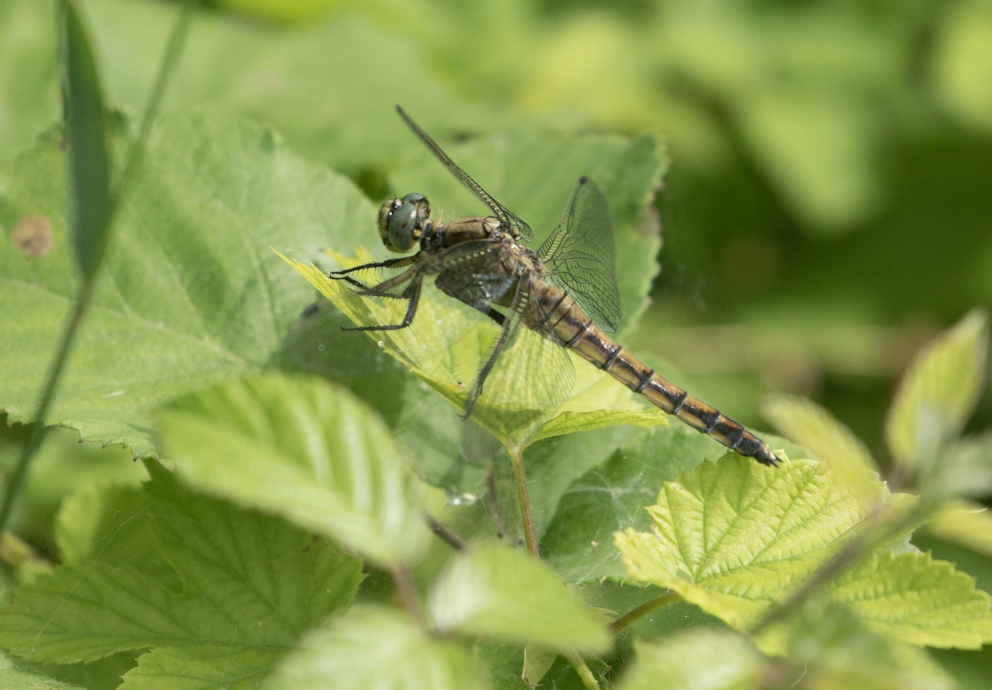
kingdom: Animalia
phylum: Arthropoda
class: Insecta
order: Odonata
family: Libellulidae
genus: Orthetrum
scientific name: Orthetrum cancellatum
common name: Black-tailed skimmer
